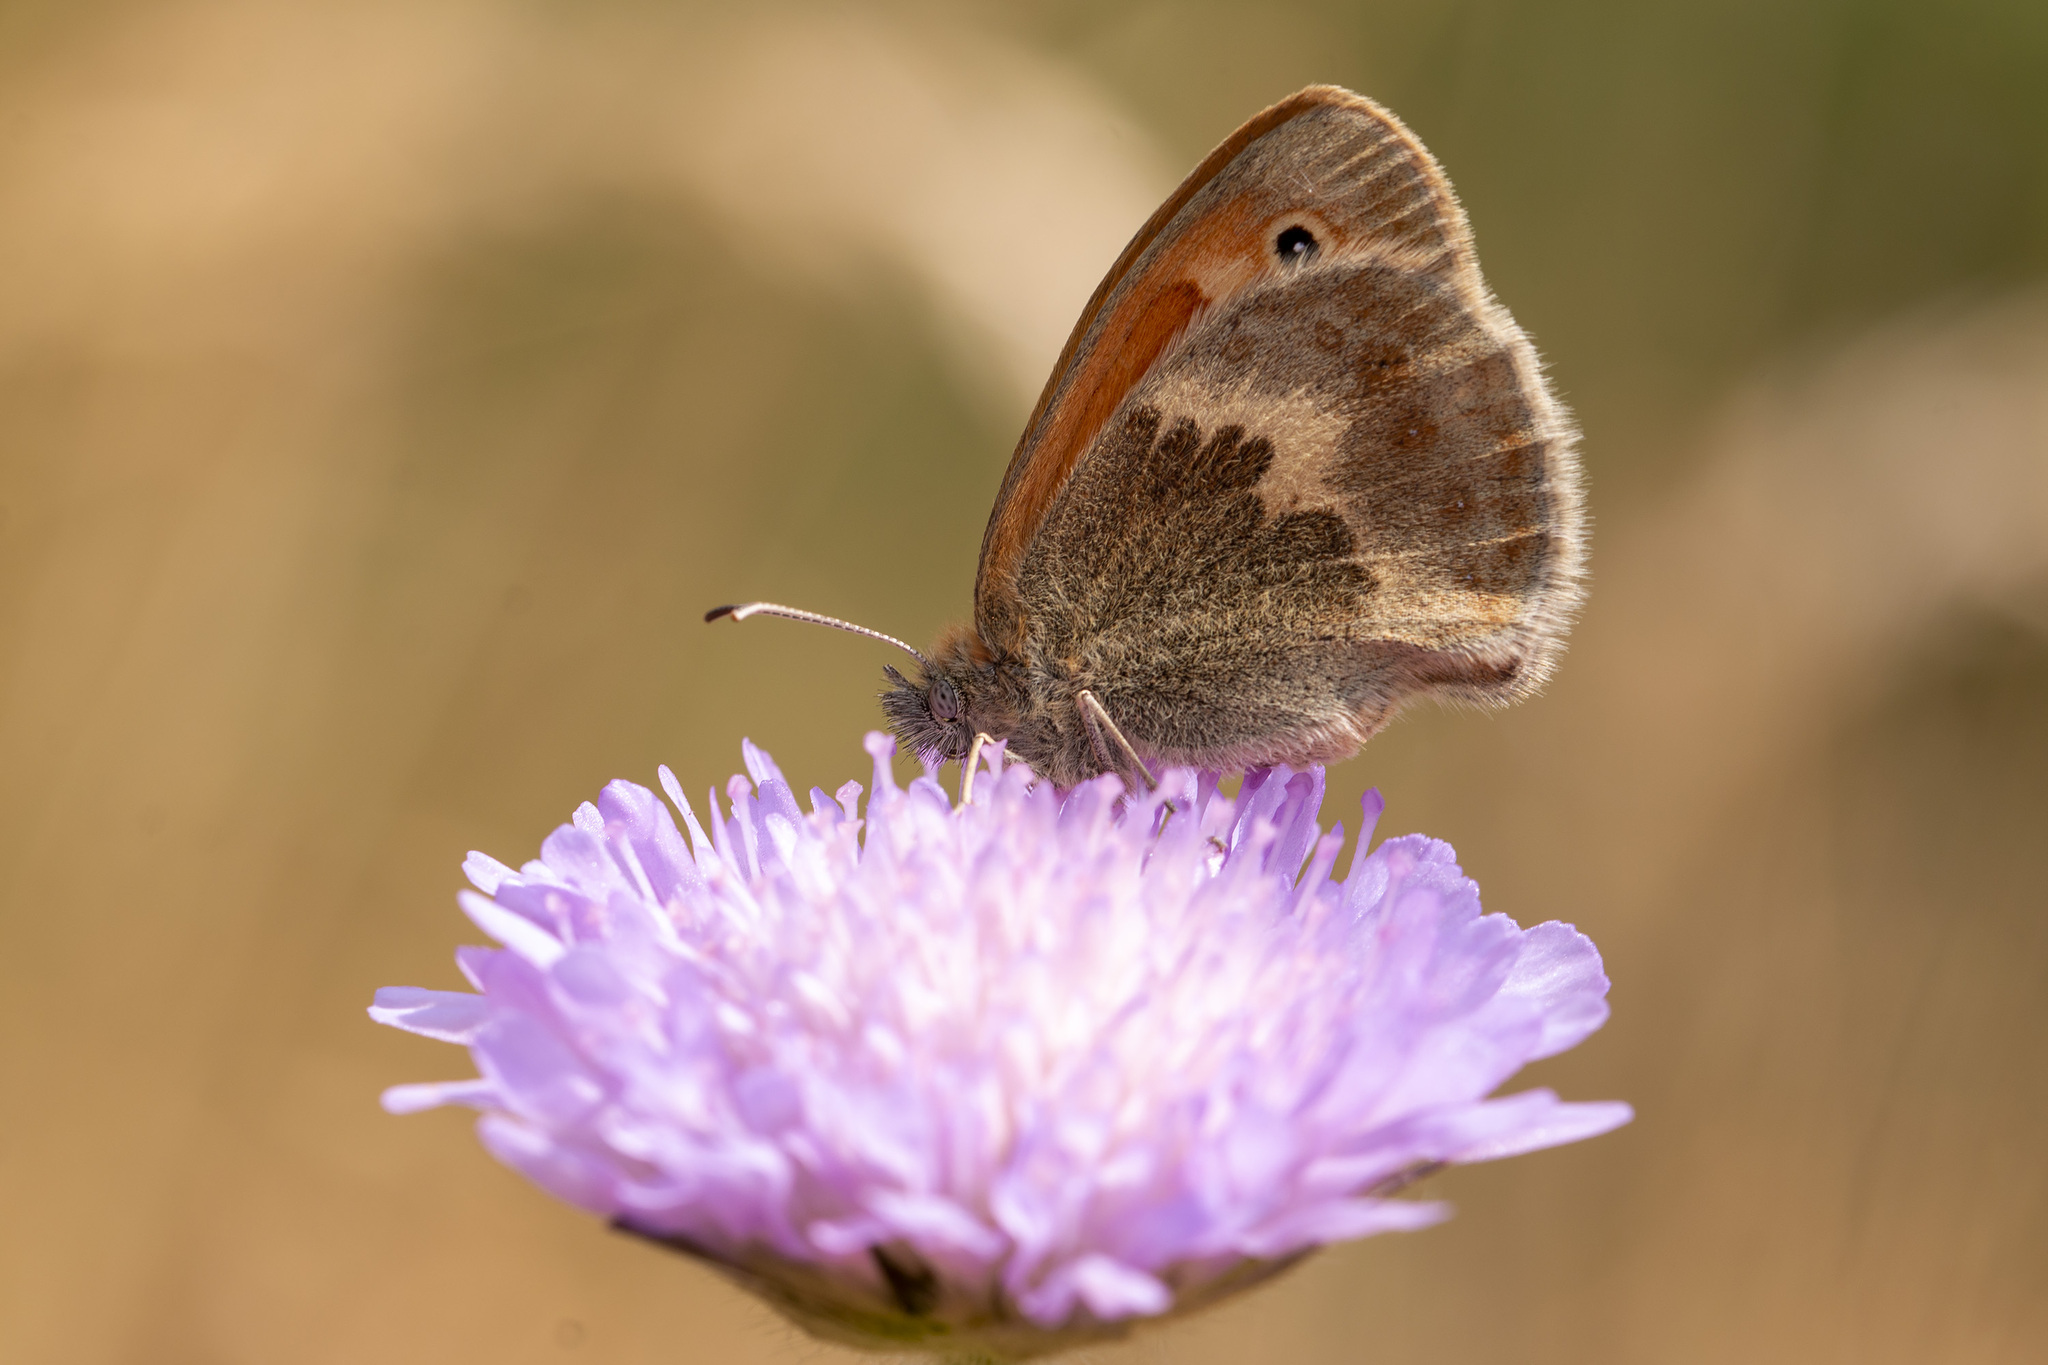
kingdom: Animalia
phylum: Arthropoda
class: Insecta
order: Lepidoptera
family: Nymphalidae
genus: Coenonympha
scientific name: Coenonympha pamphilus
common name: Small heath
